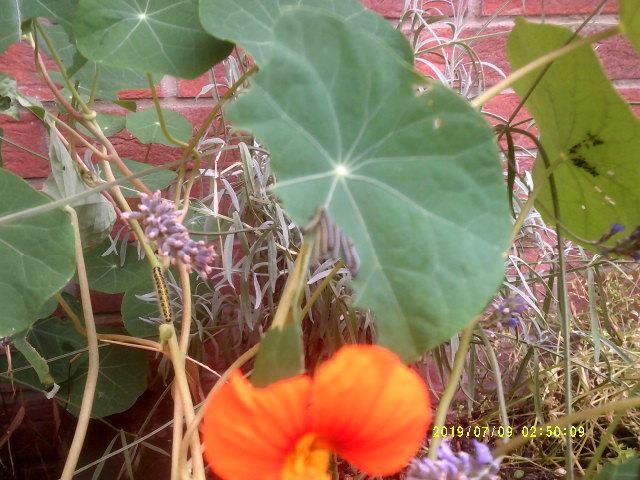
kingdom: Plantae
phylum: Tracheophyta
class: Magnoliopsida
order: Brassicales
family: Tropaeolaceae
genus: Tropaeolum
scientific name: Tropaeolum majus
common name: Nasturtium
